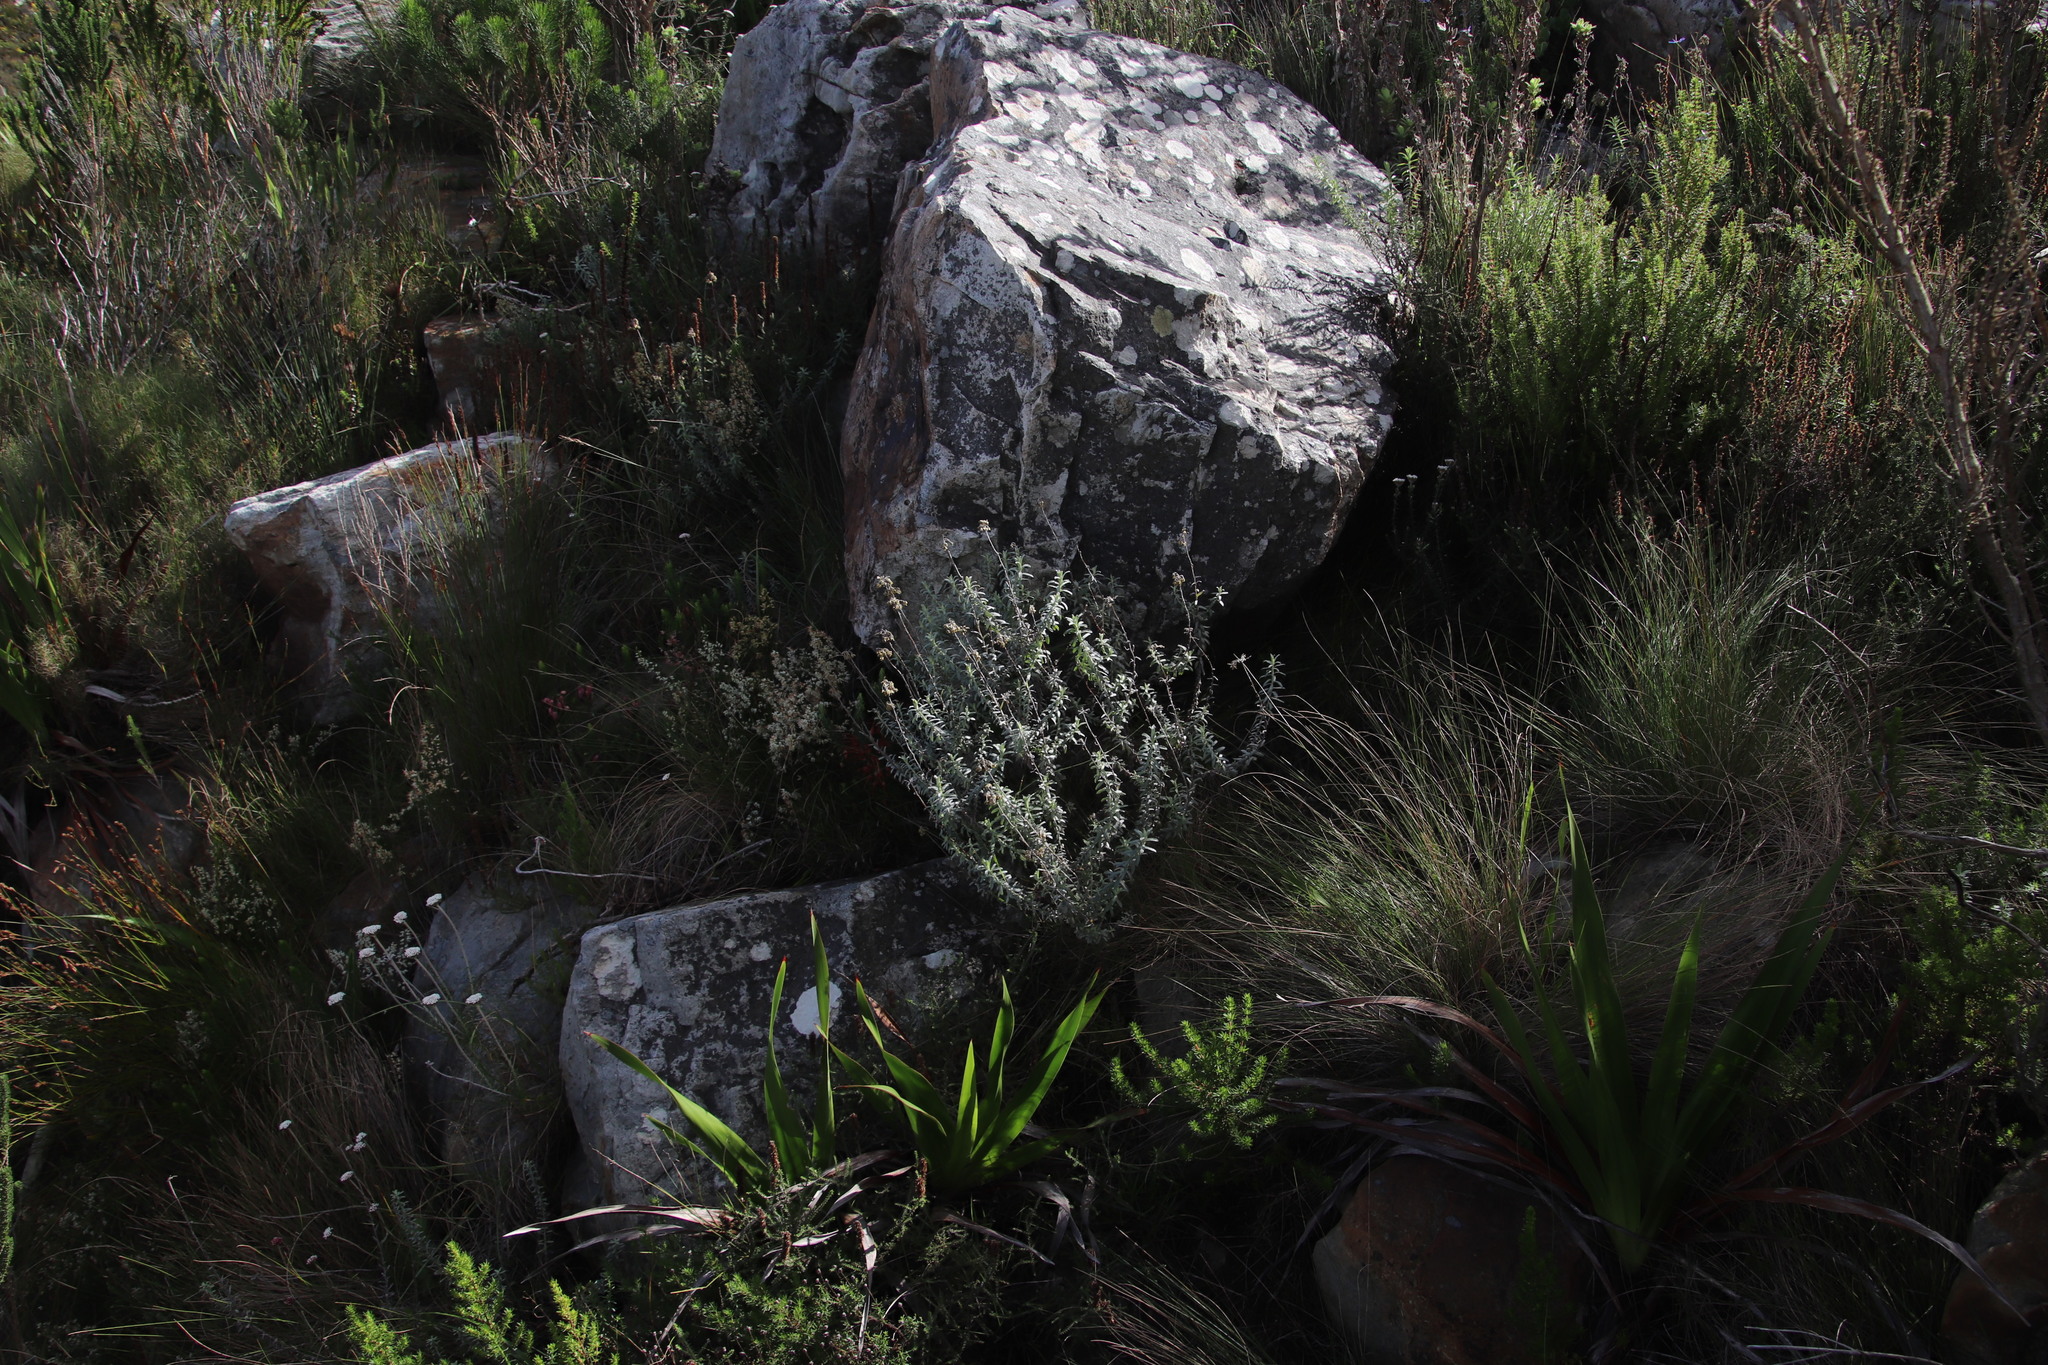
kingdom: Plantae
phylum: Tracheophyta
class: Magnoliopsida
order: Asterales
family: Asteraceae
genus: Helichrysum
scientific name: Helichrysum cymosum
